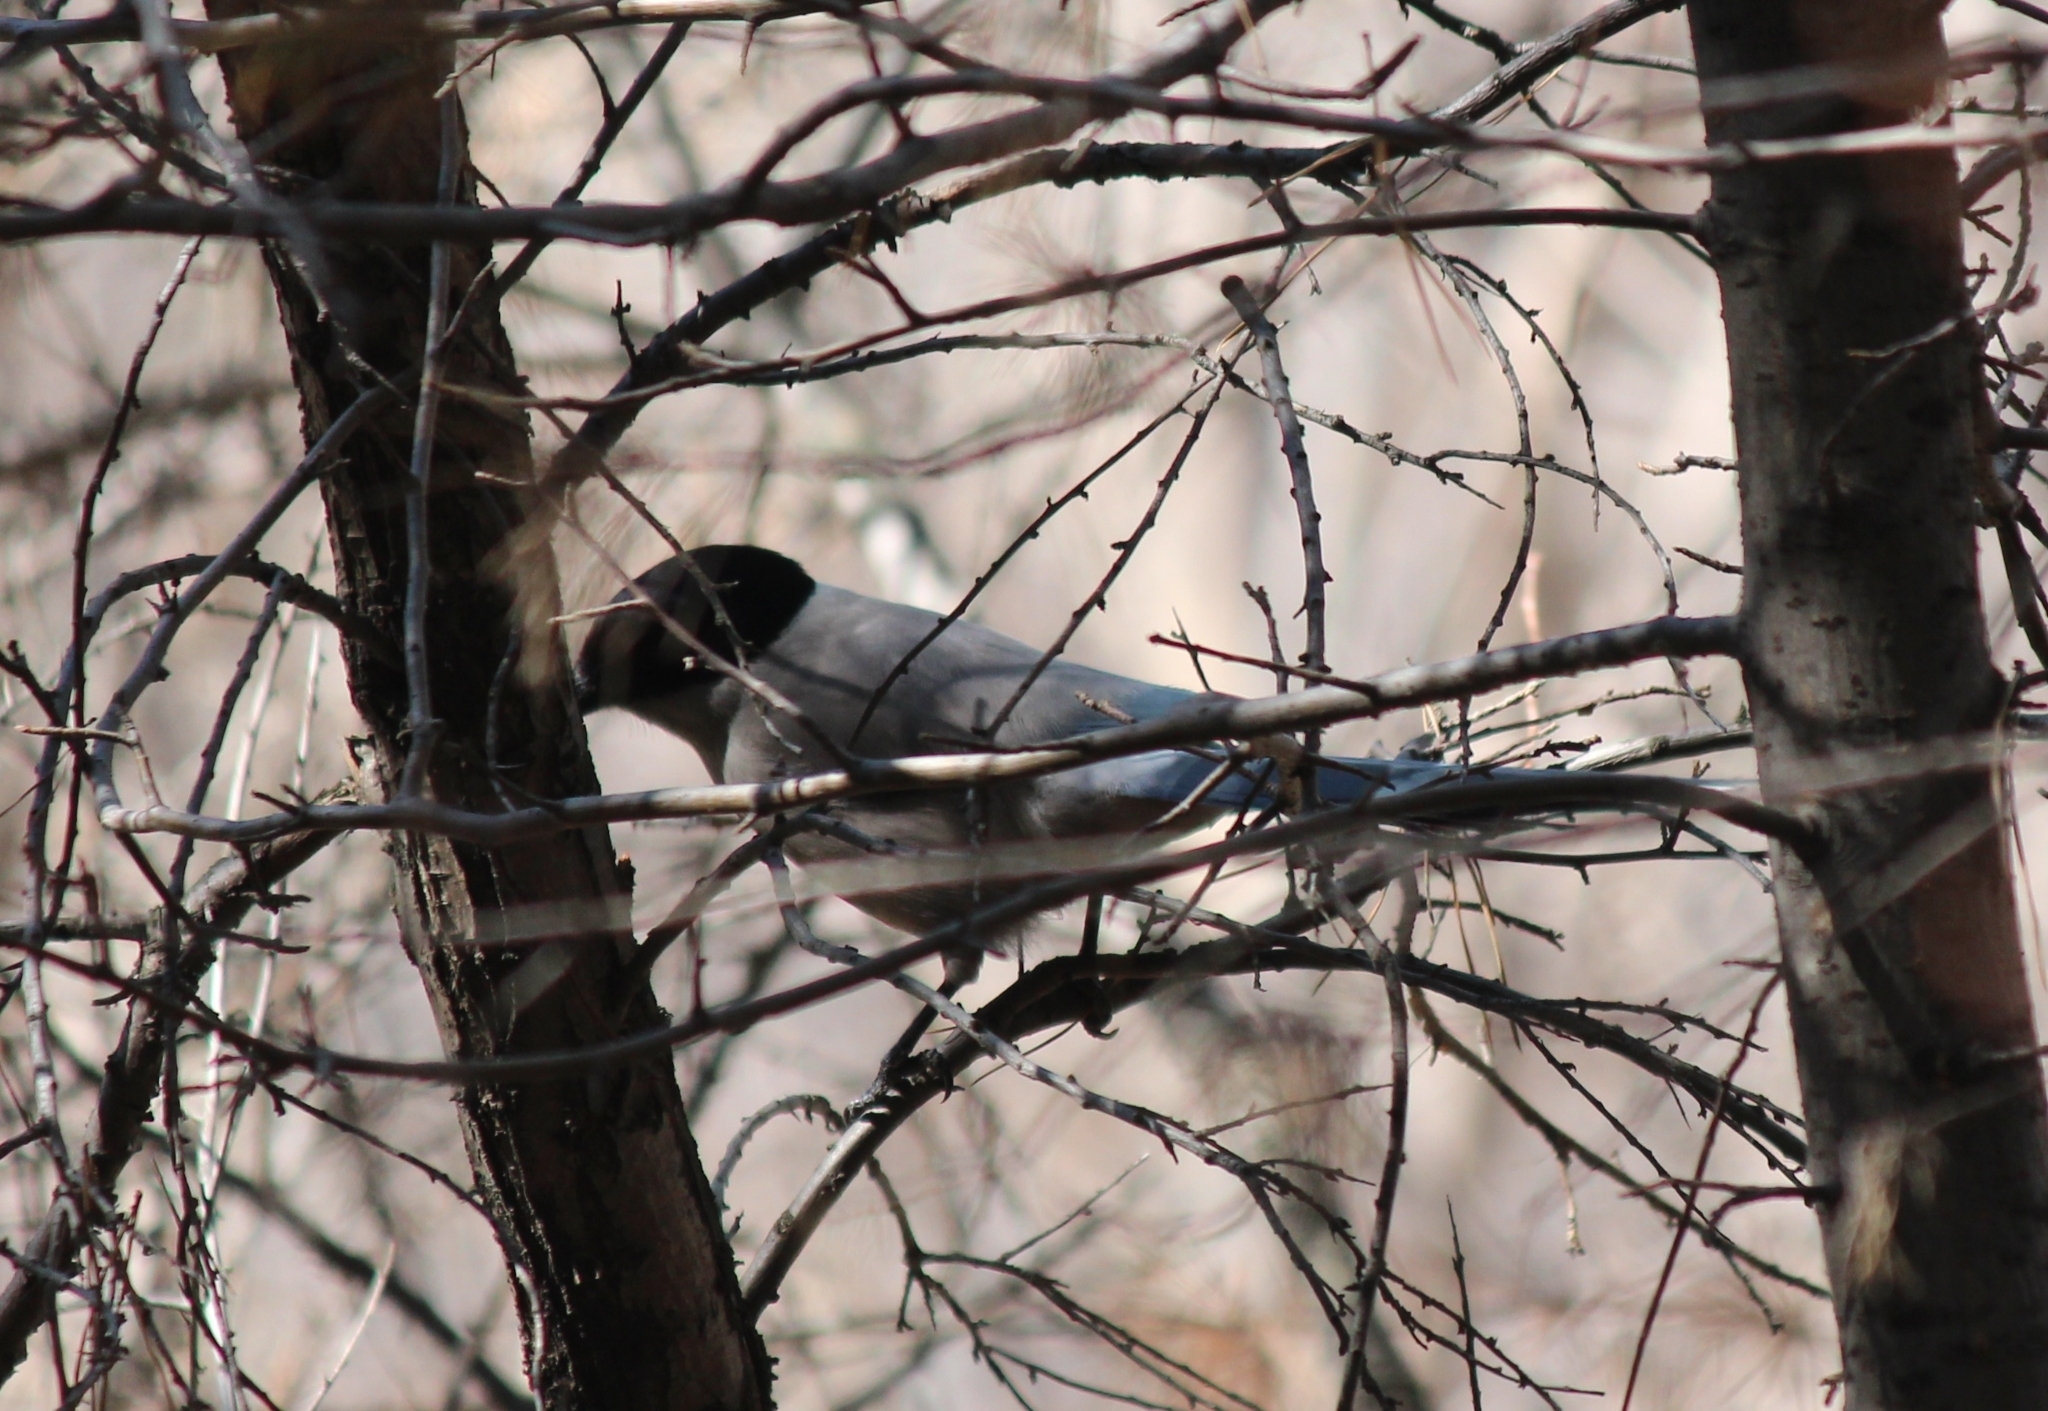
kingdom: Animalia
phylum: Chordata
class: Aves
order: Passeriformes
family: Corvidae
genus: Cyanopica
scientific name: Cyanopica cyanus
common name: Azure-winged magpie
